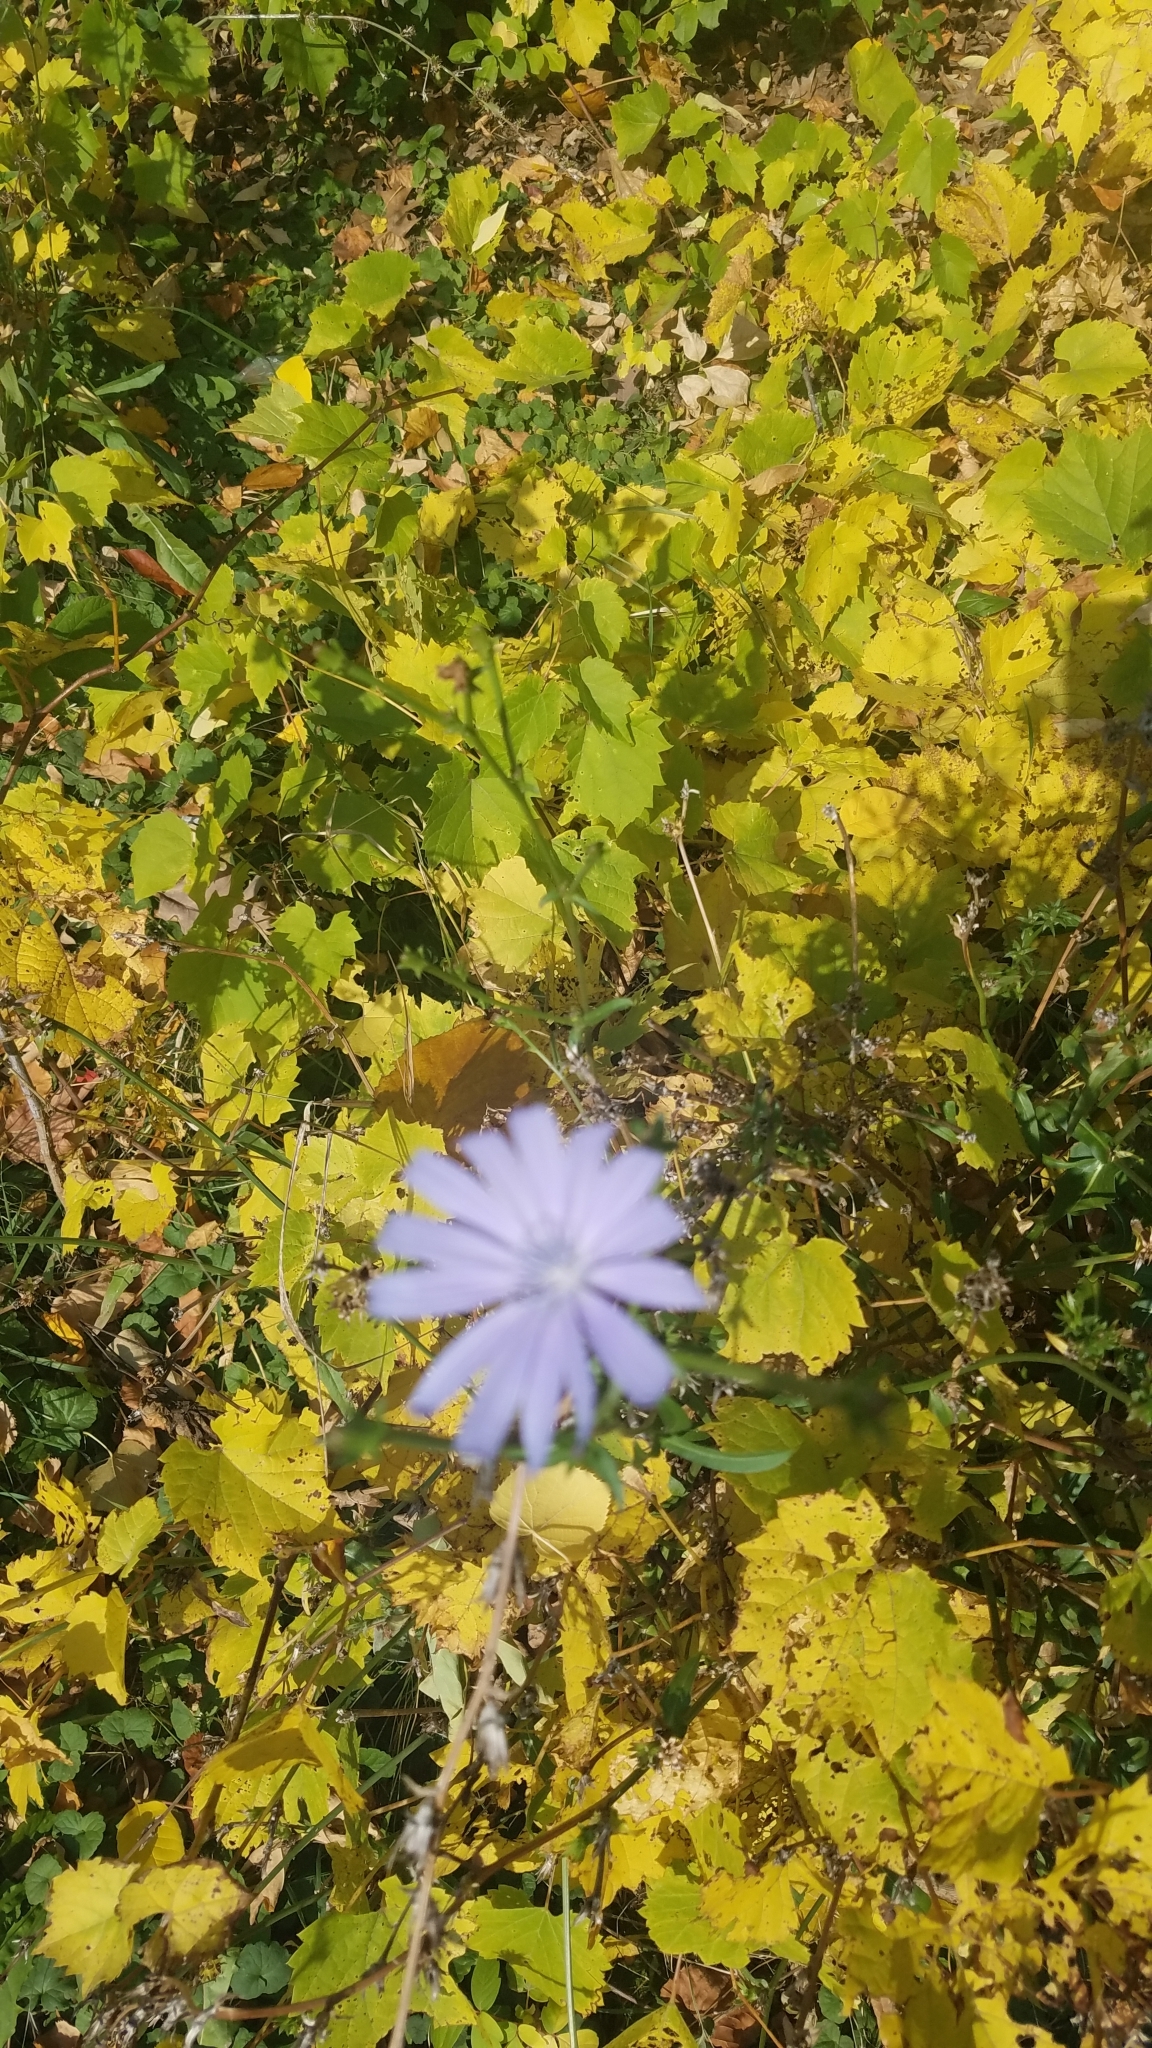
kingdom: Plantae
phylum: Tracheophyta
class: Magnoliopsida
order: Asterales
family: Asteraceae
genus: Cichorium
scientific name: Cichorium intybus
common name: Chicory
